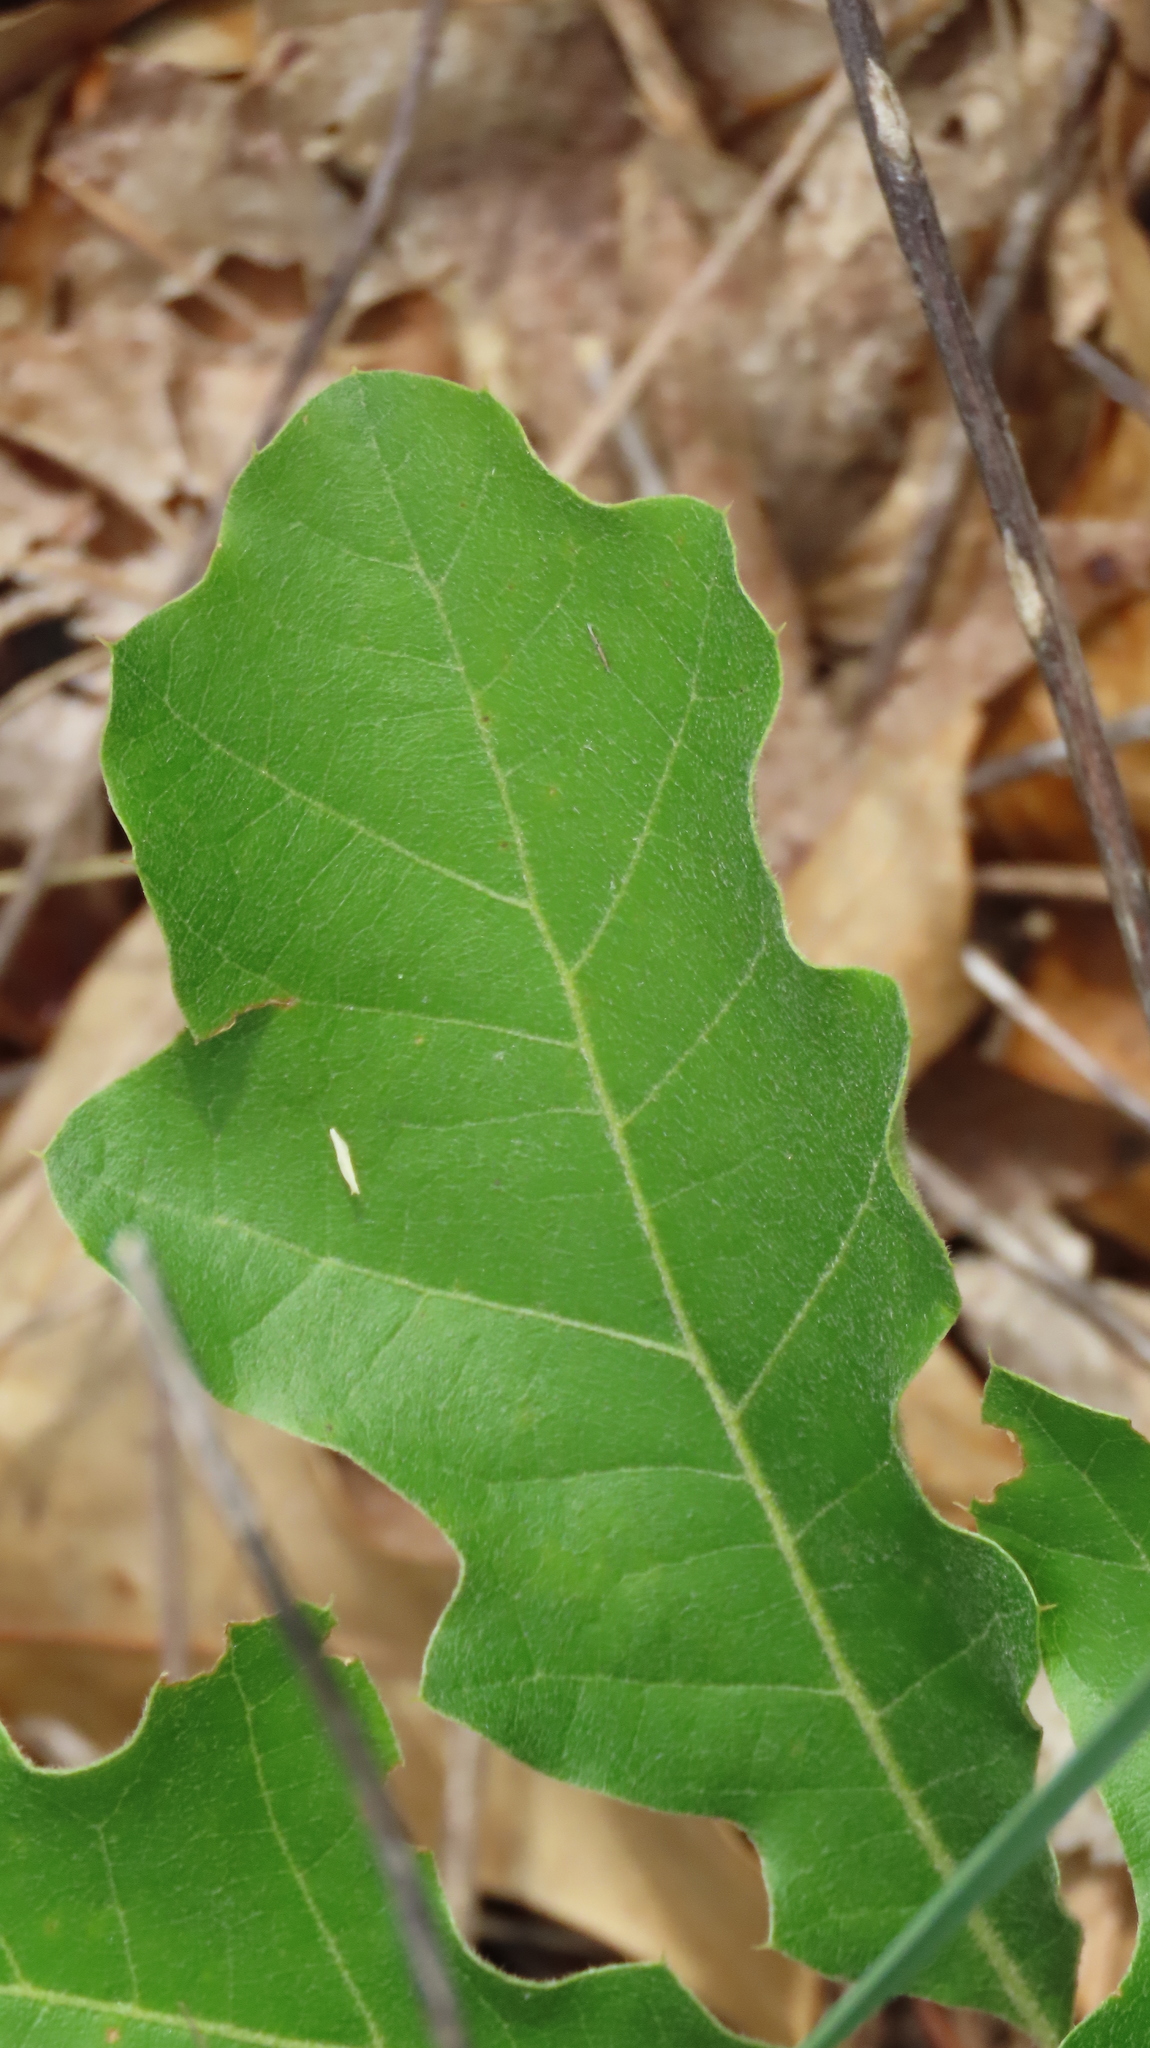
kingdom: Plantae
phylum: Tracheophyta
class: Magnoliopsida
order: Fagales
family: Fagaceae
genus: Quercus
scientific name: Quercus velutina
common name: Black oak
